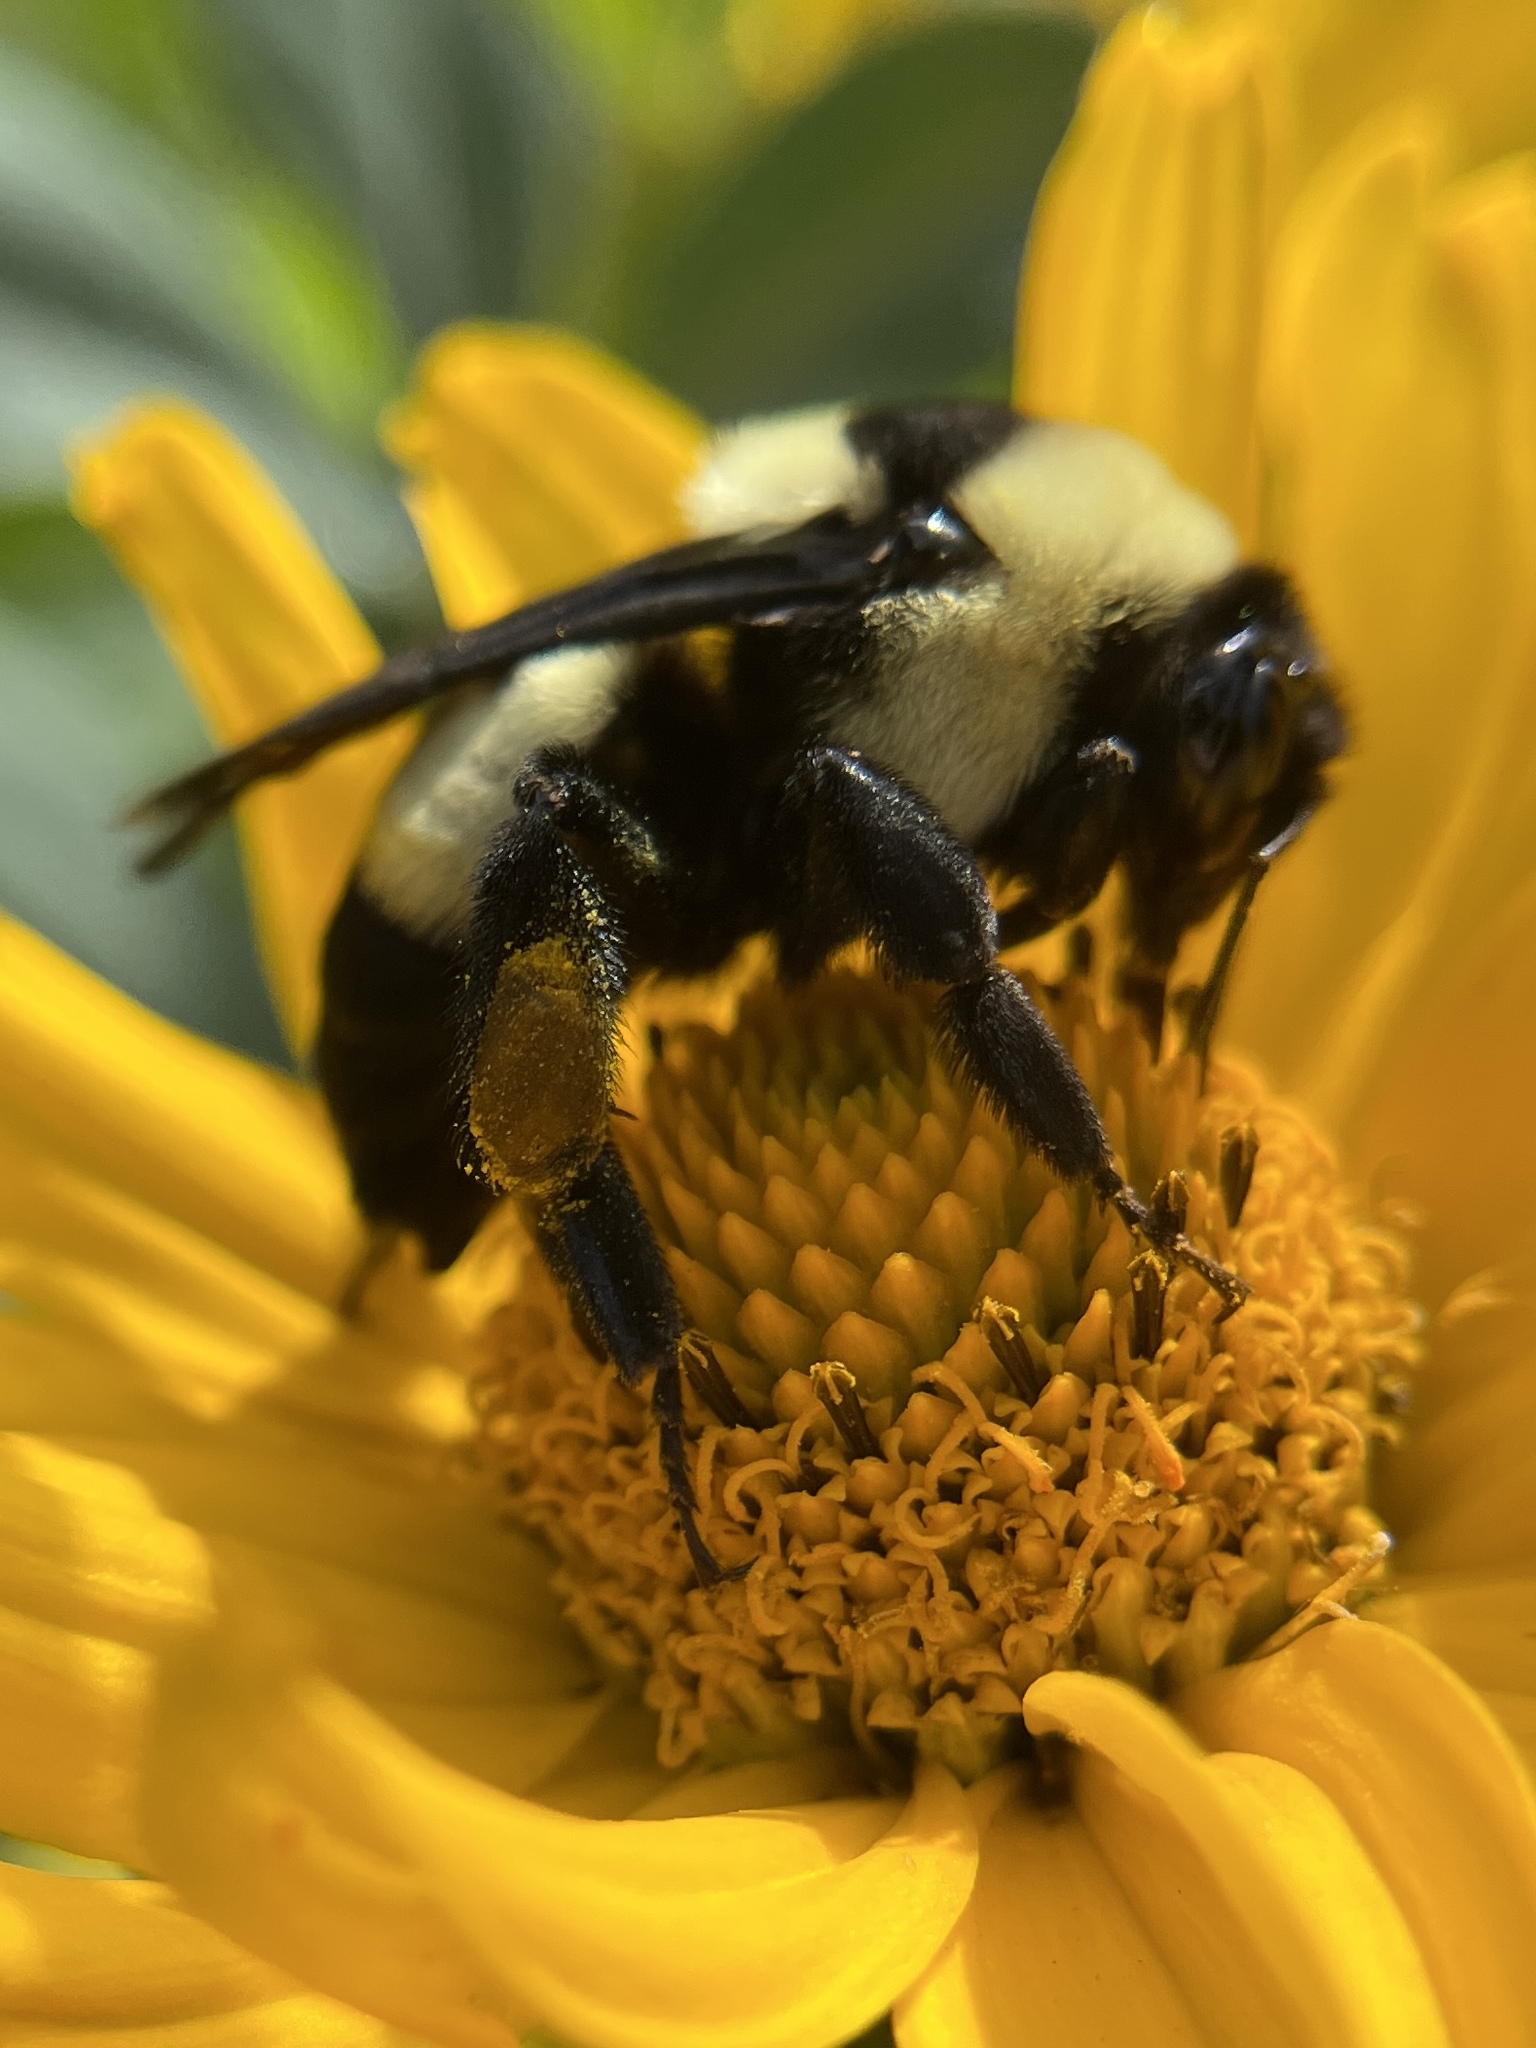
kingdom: Animalia
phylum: Arthropoda
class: Insecta
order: Hymenoptera
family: Apidae
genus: Bombus
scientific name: Bombus fraternus
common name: Southern plains bumble bee
